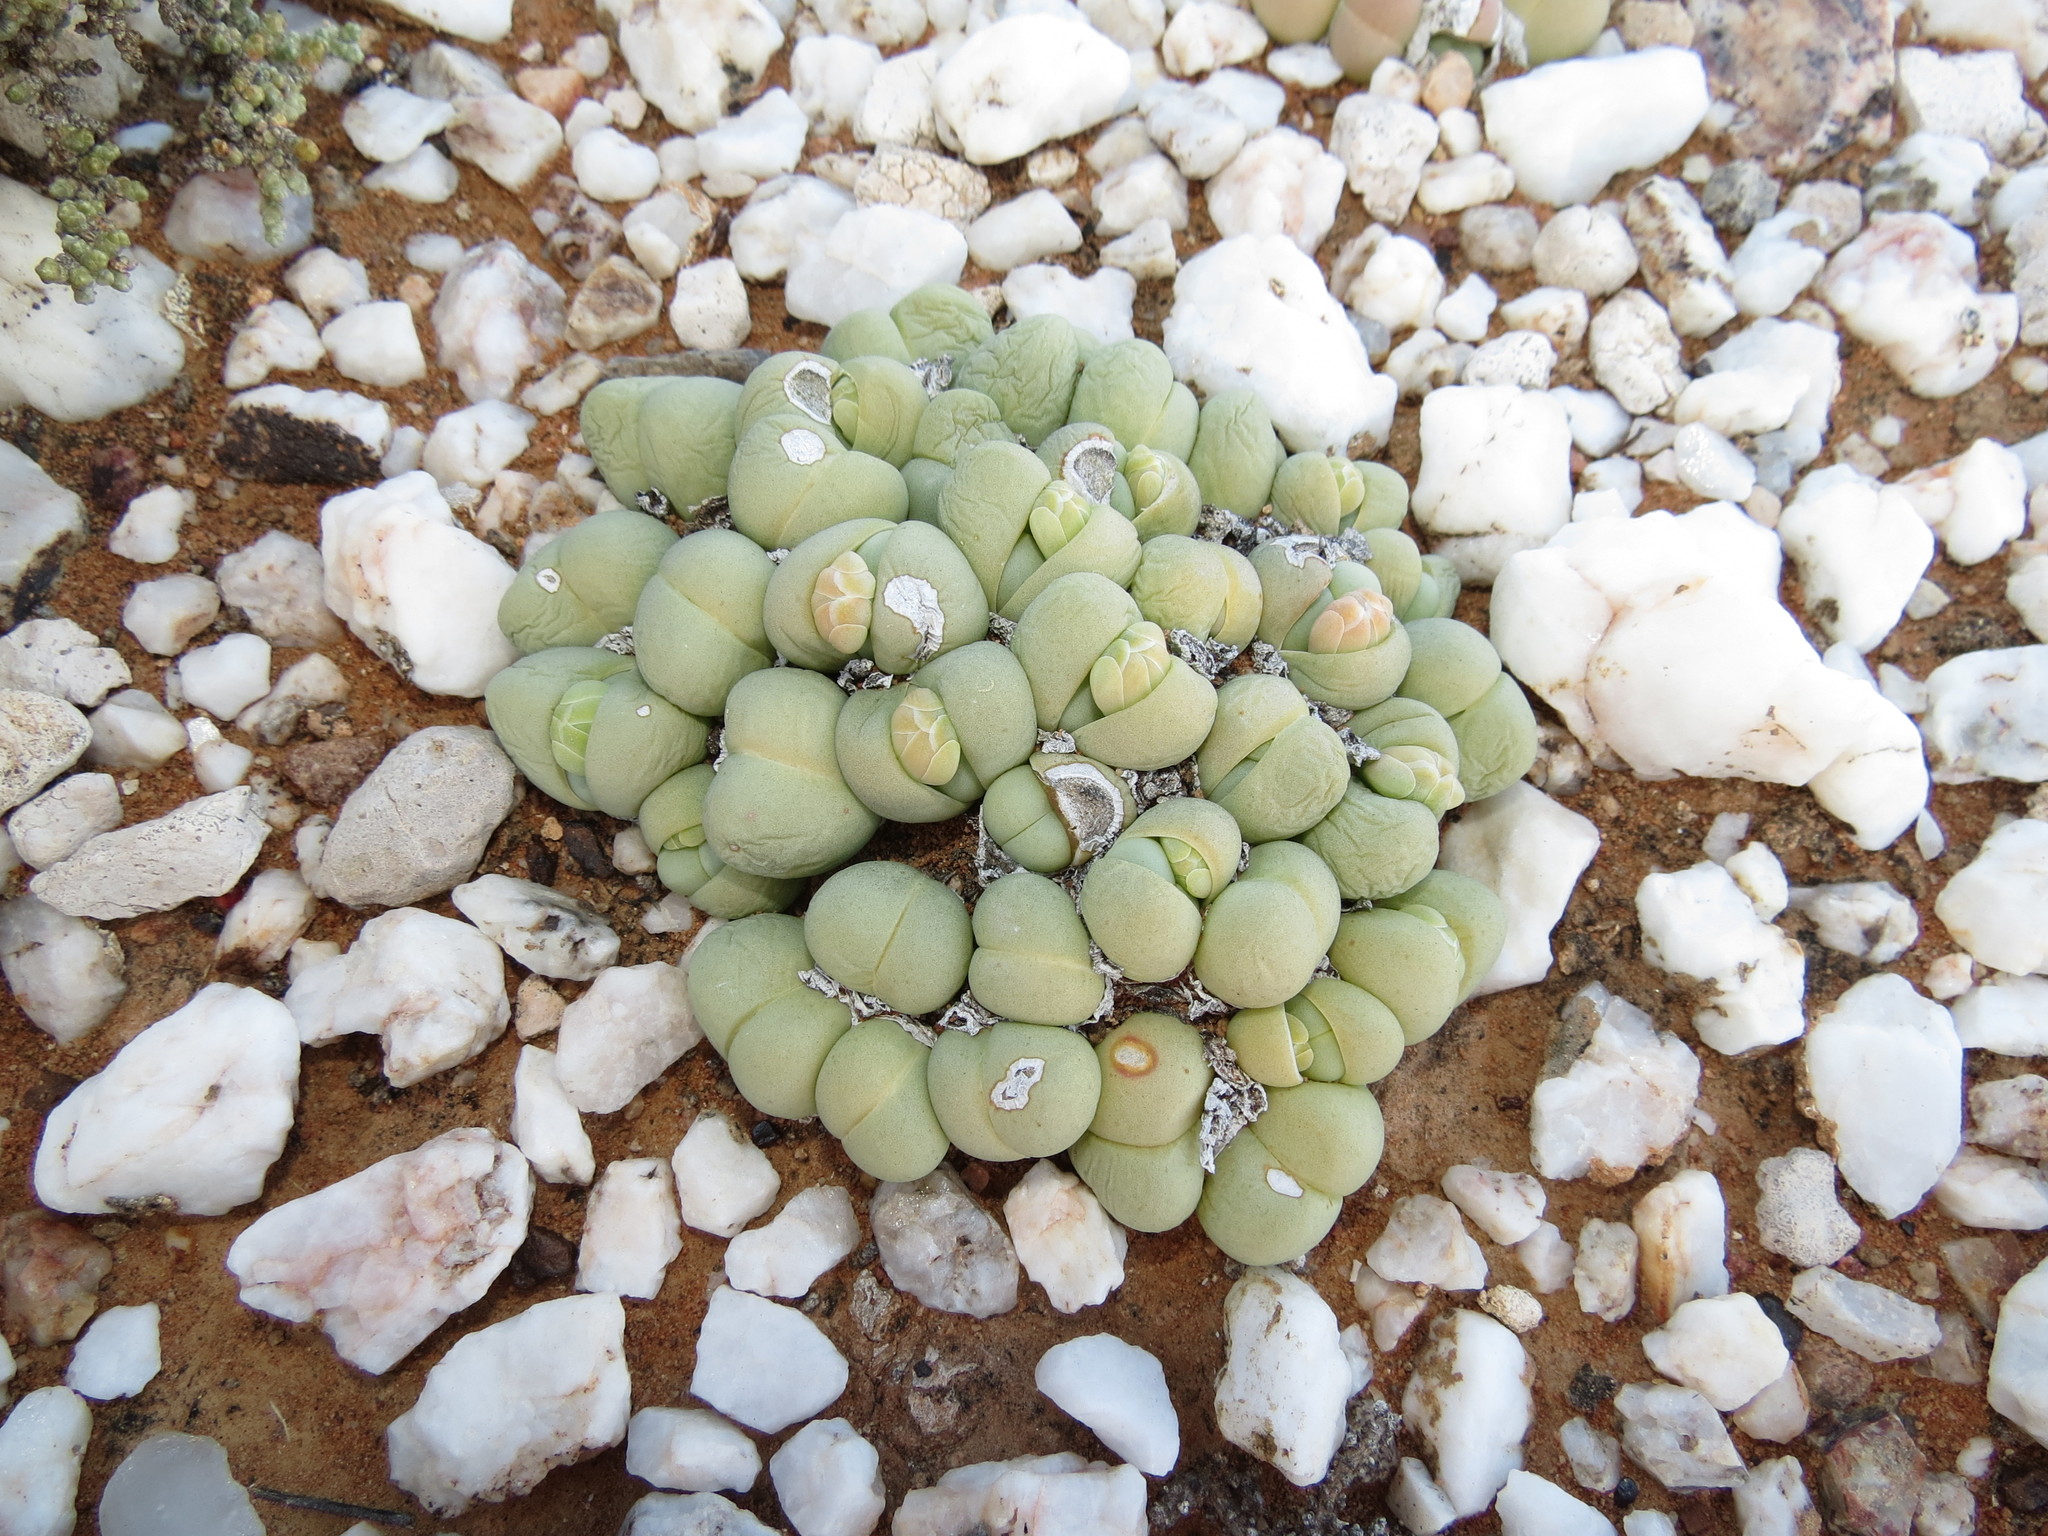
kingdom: Plantae
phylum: Tracheophyta
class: Magnoliopsida
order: Caryophyllales
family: Aizoaceae
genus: Gibbaeum
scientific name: Gibbaeum heathii
